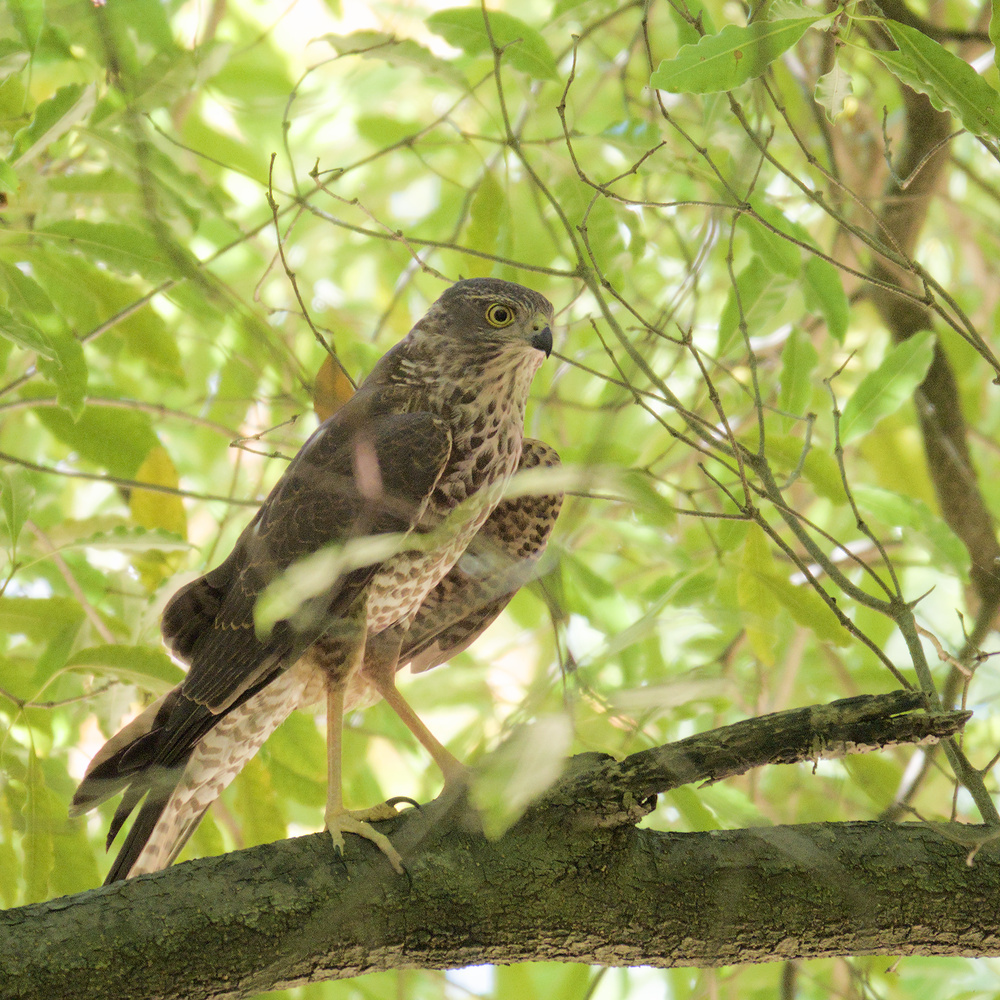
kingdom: Animalia
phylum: Chordata
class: Aves
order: Accipitriformes
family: Accipitridae
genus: Accipiter
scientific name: Accipiter cirrocephalus
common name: Collared sparrowhawk
